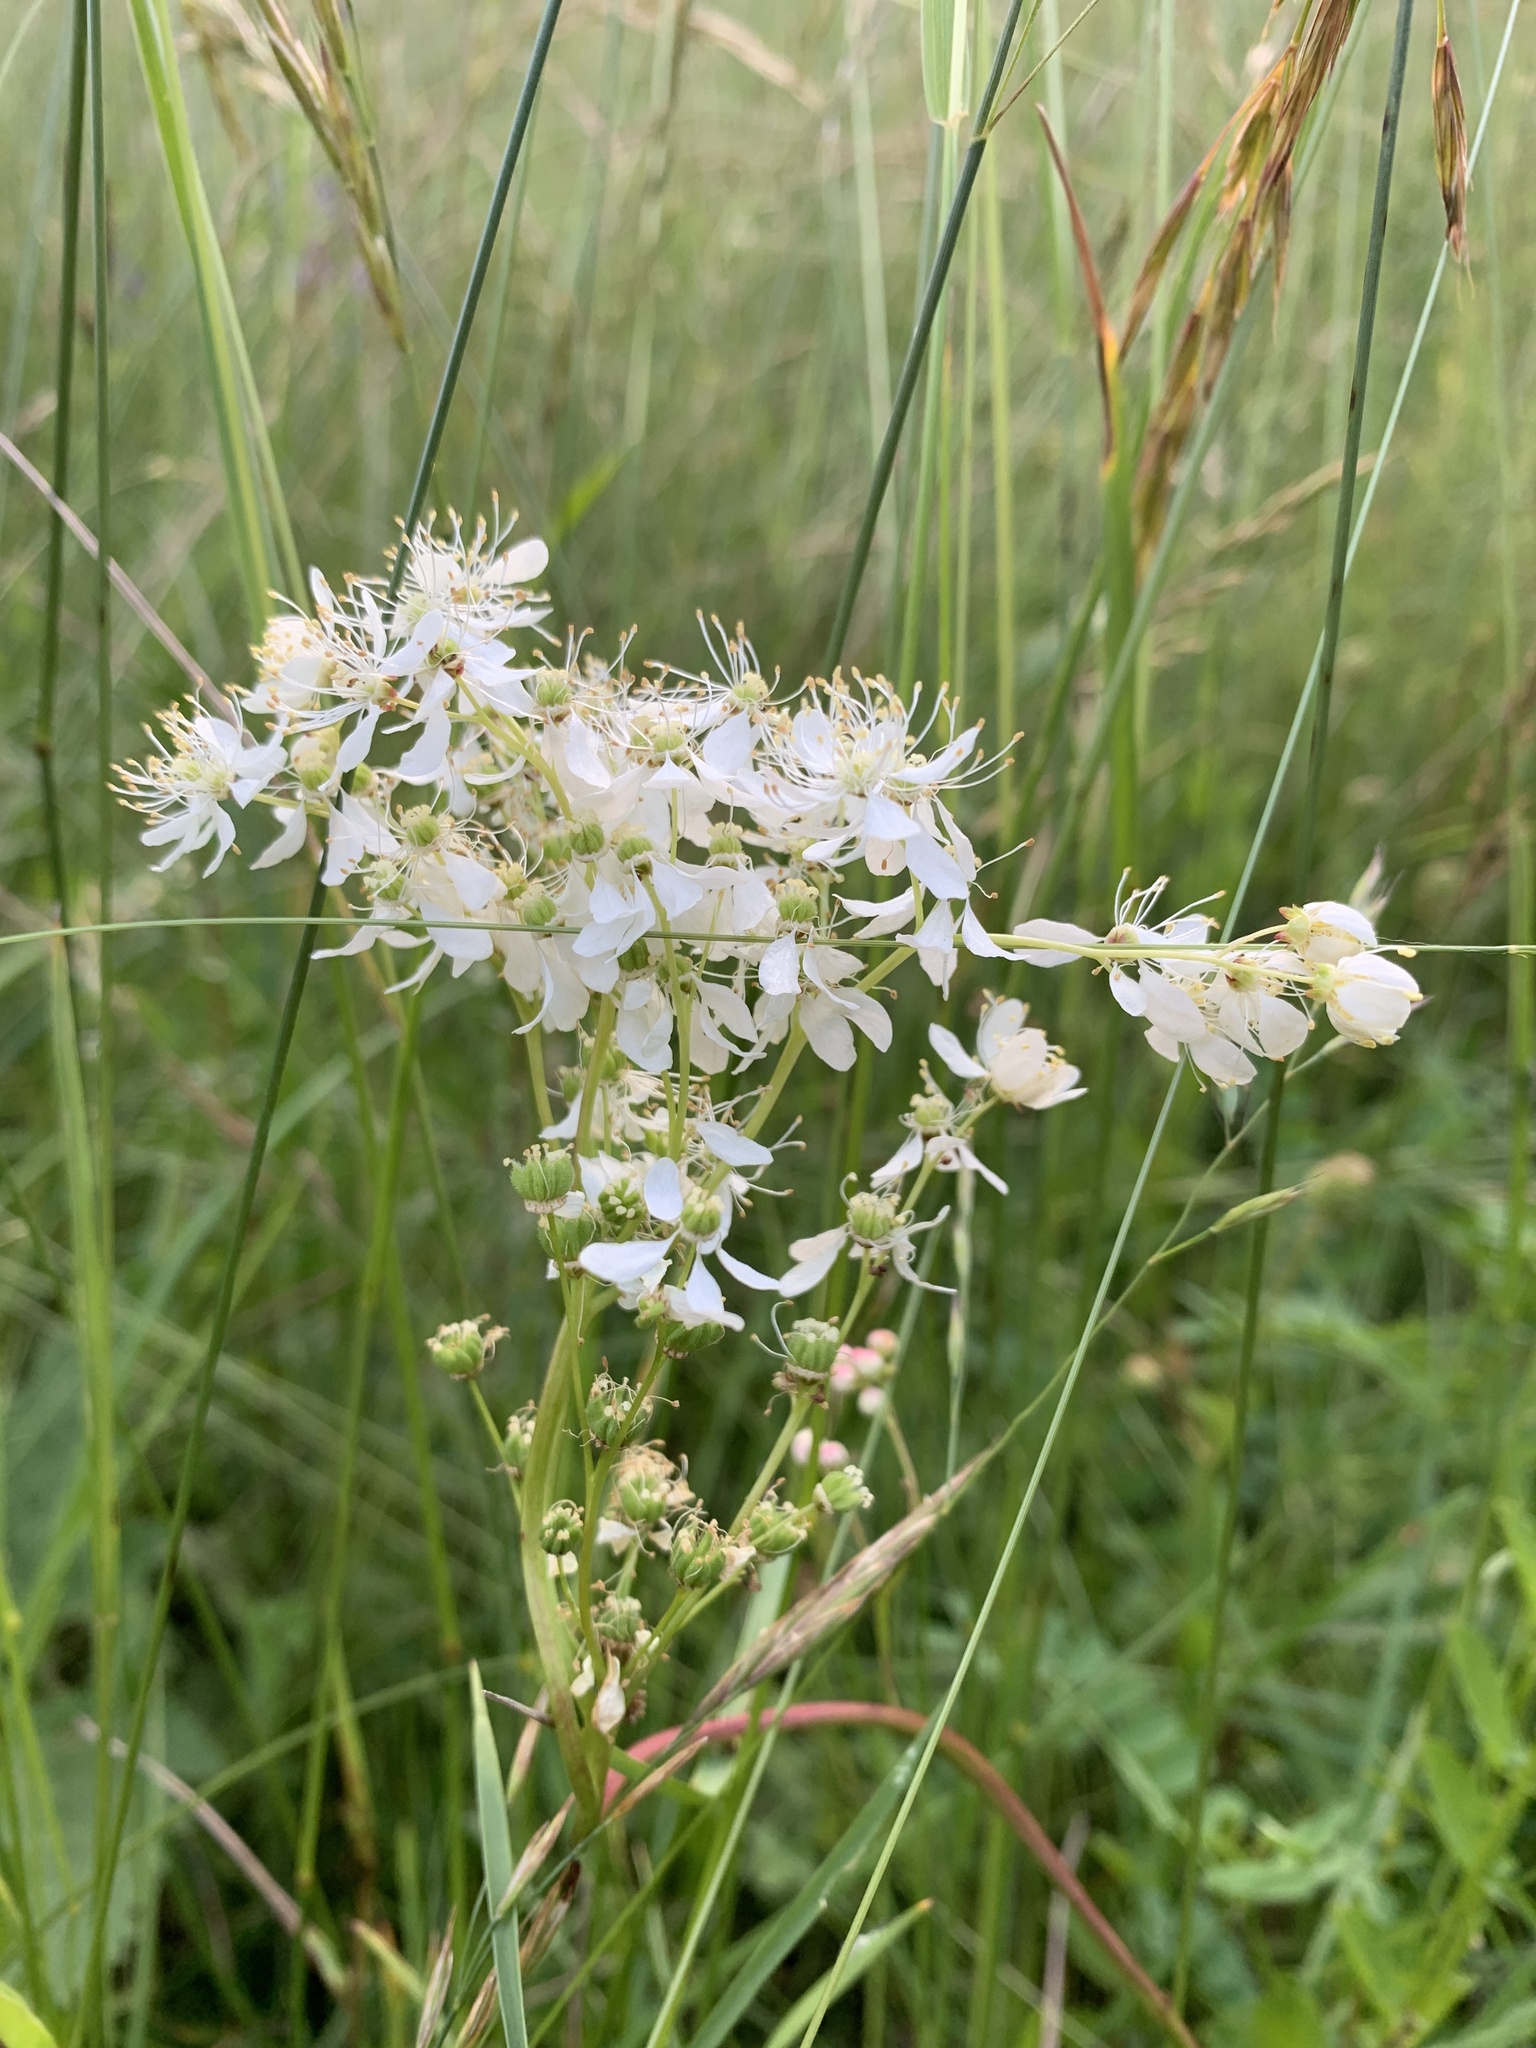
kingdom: Plantae
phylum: Tracheophyta
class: Magnoliopsida
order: Rosales
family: Rosaceae
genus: Filipendula
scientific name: Filipendula vulgaris
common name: Dropwort
